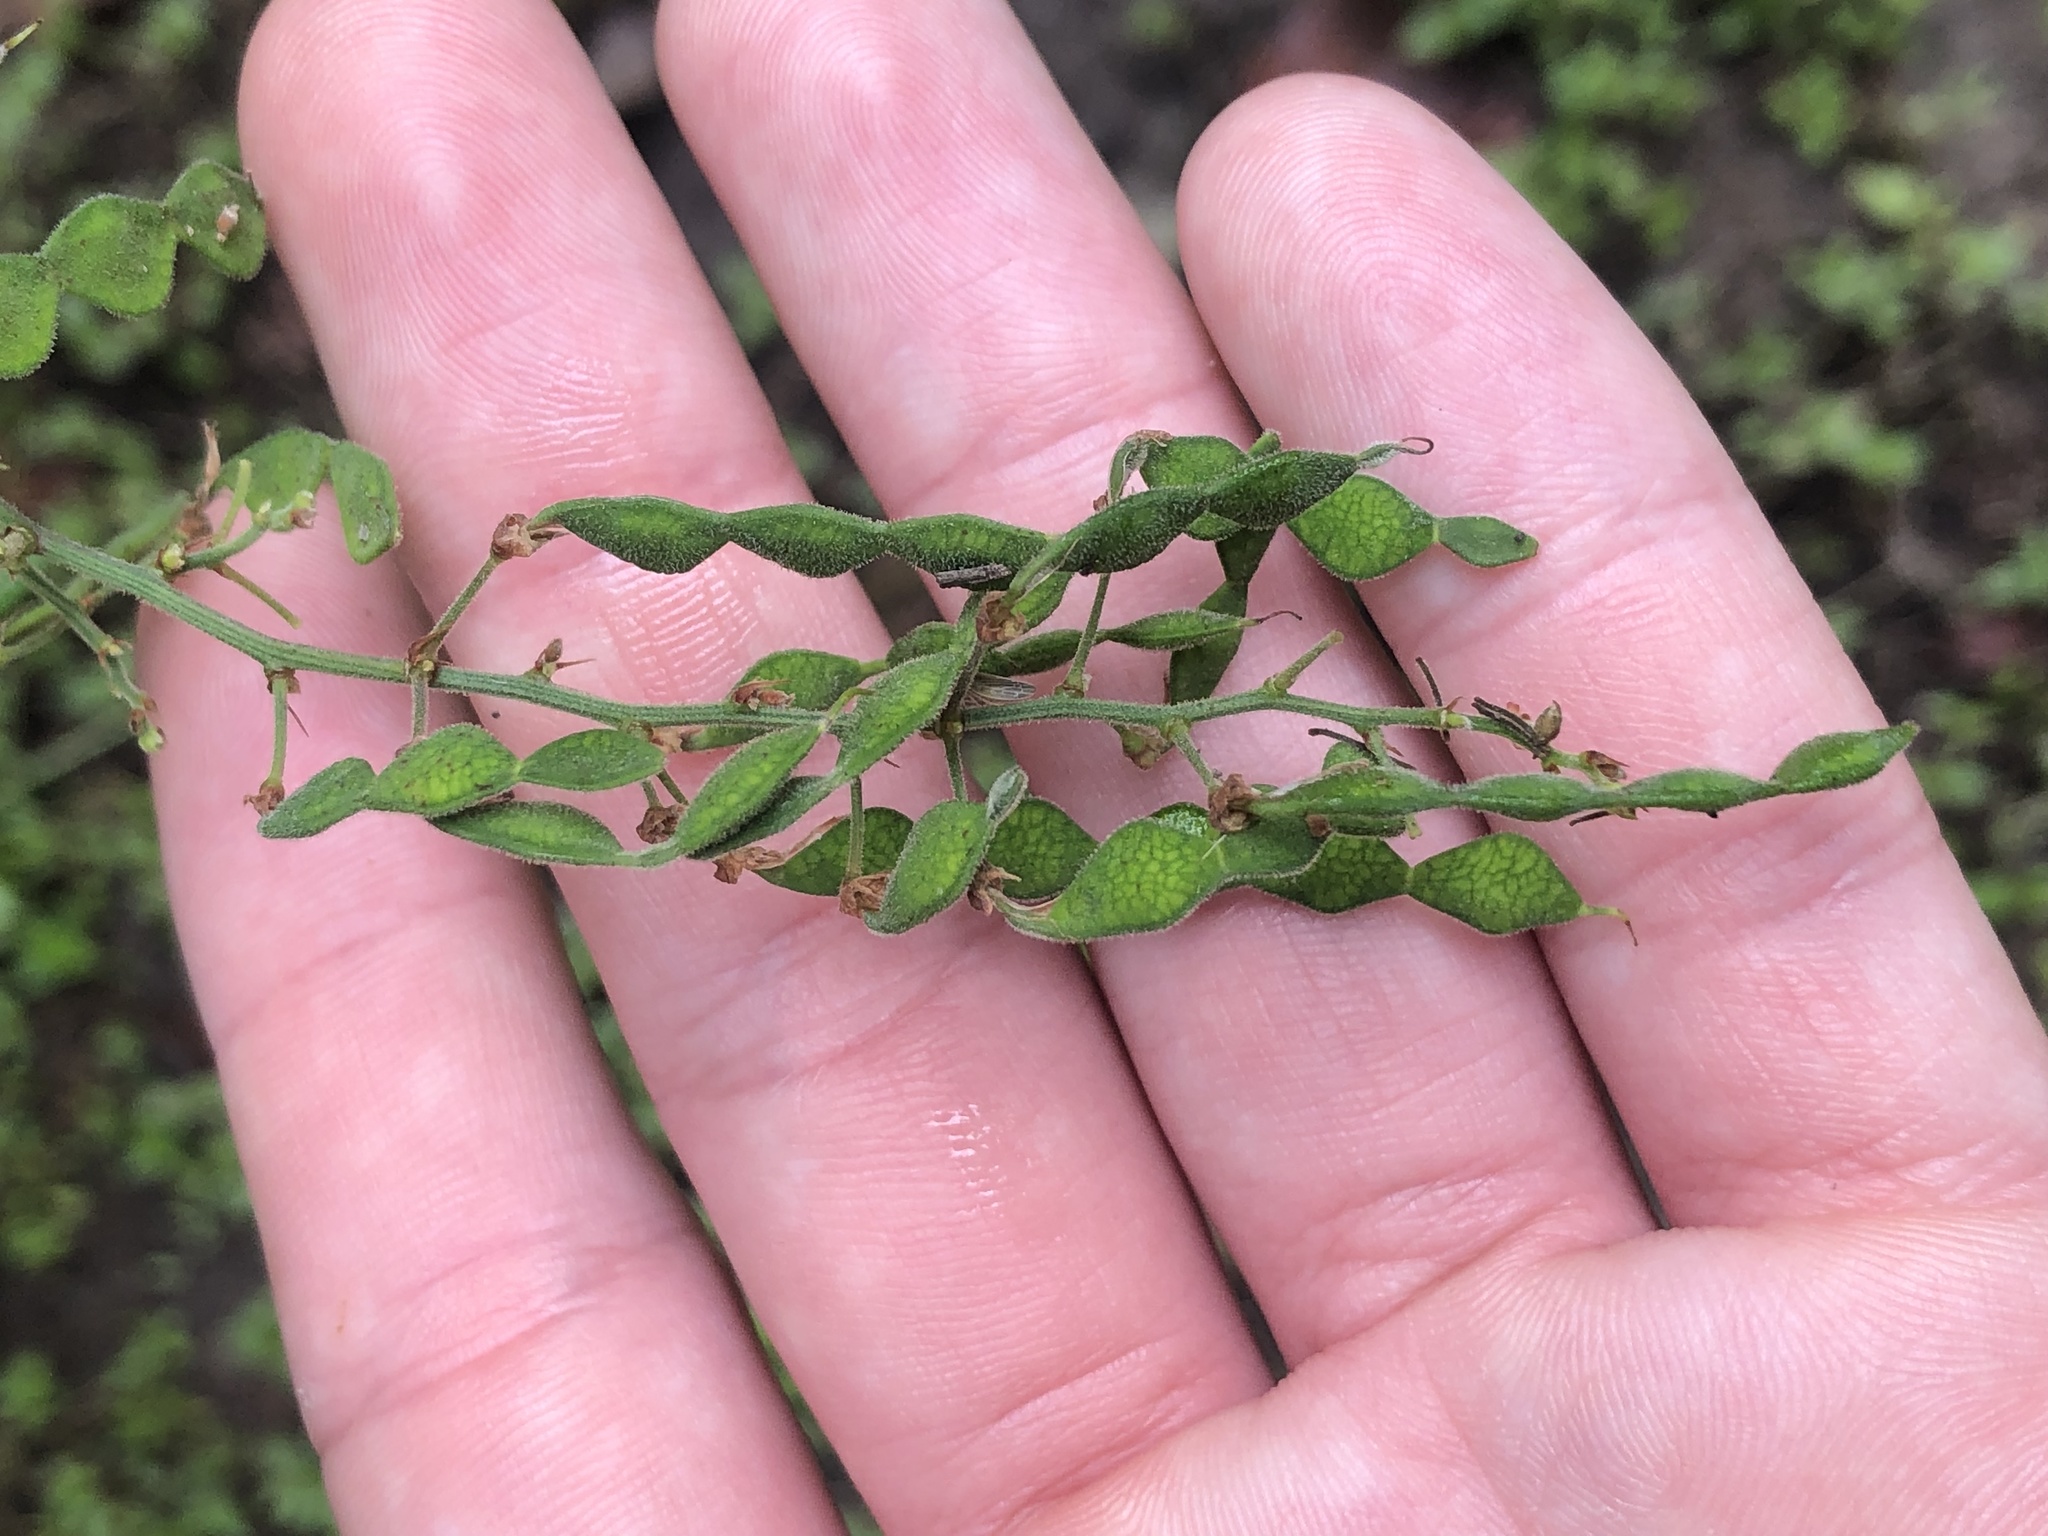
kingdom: Plantae
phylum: Tracheophyta
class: Magnoliopsida
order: Fabales
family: Fabaceae
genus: Desmodium
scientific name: Desmodium paniculatum
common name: Panicled tick-clover
